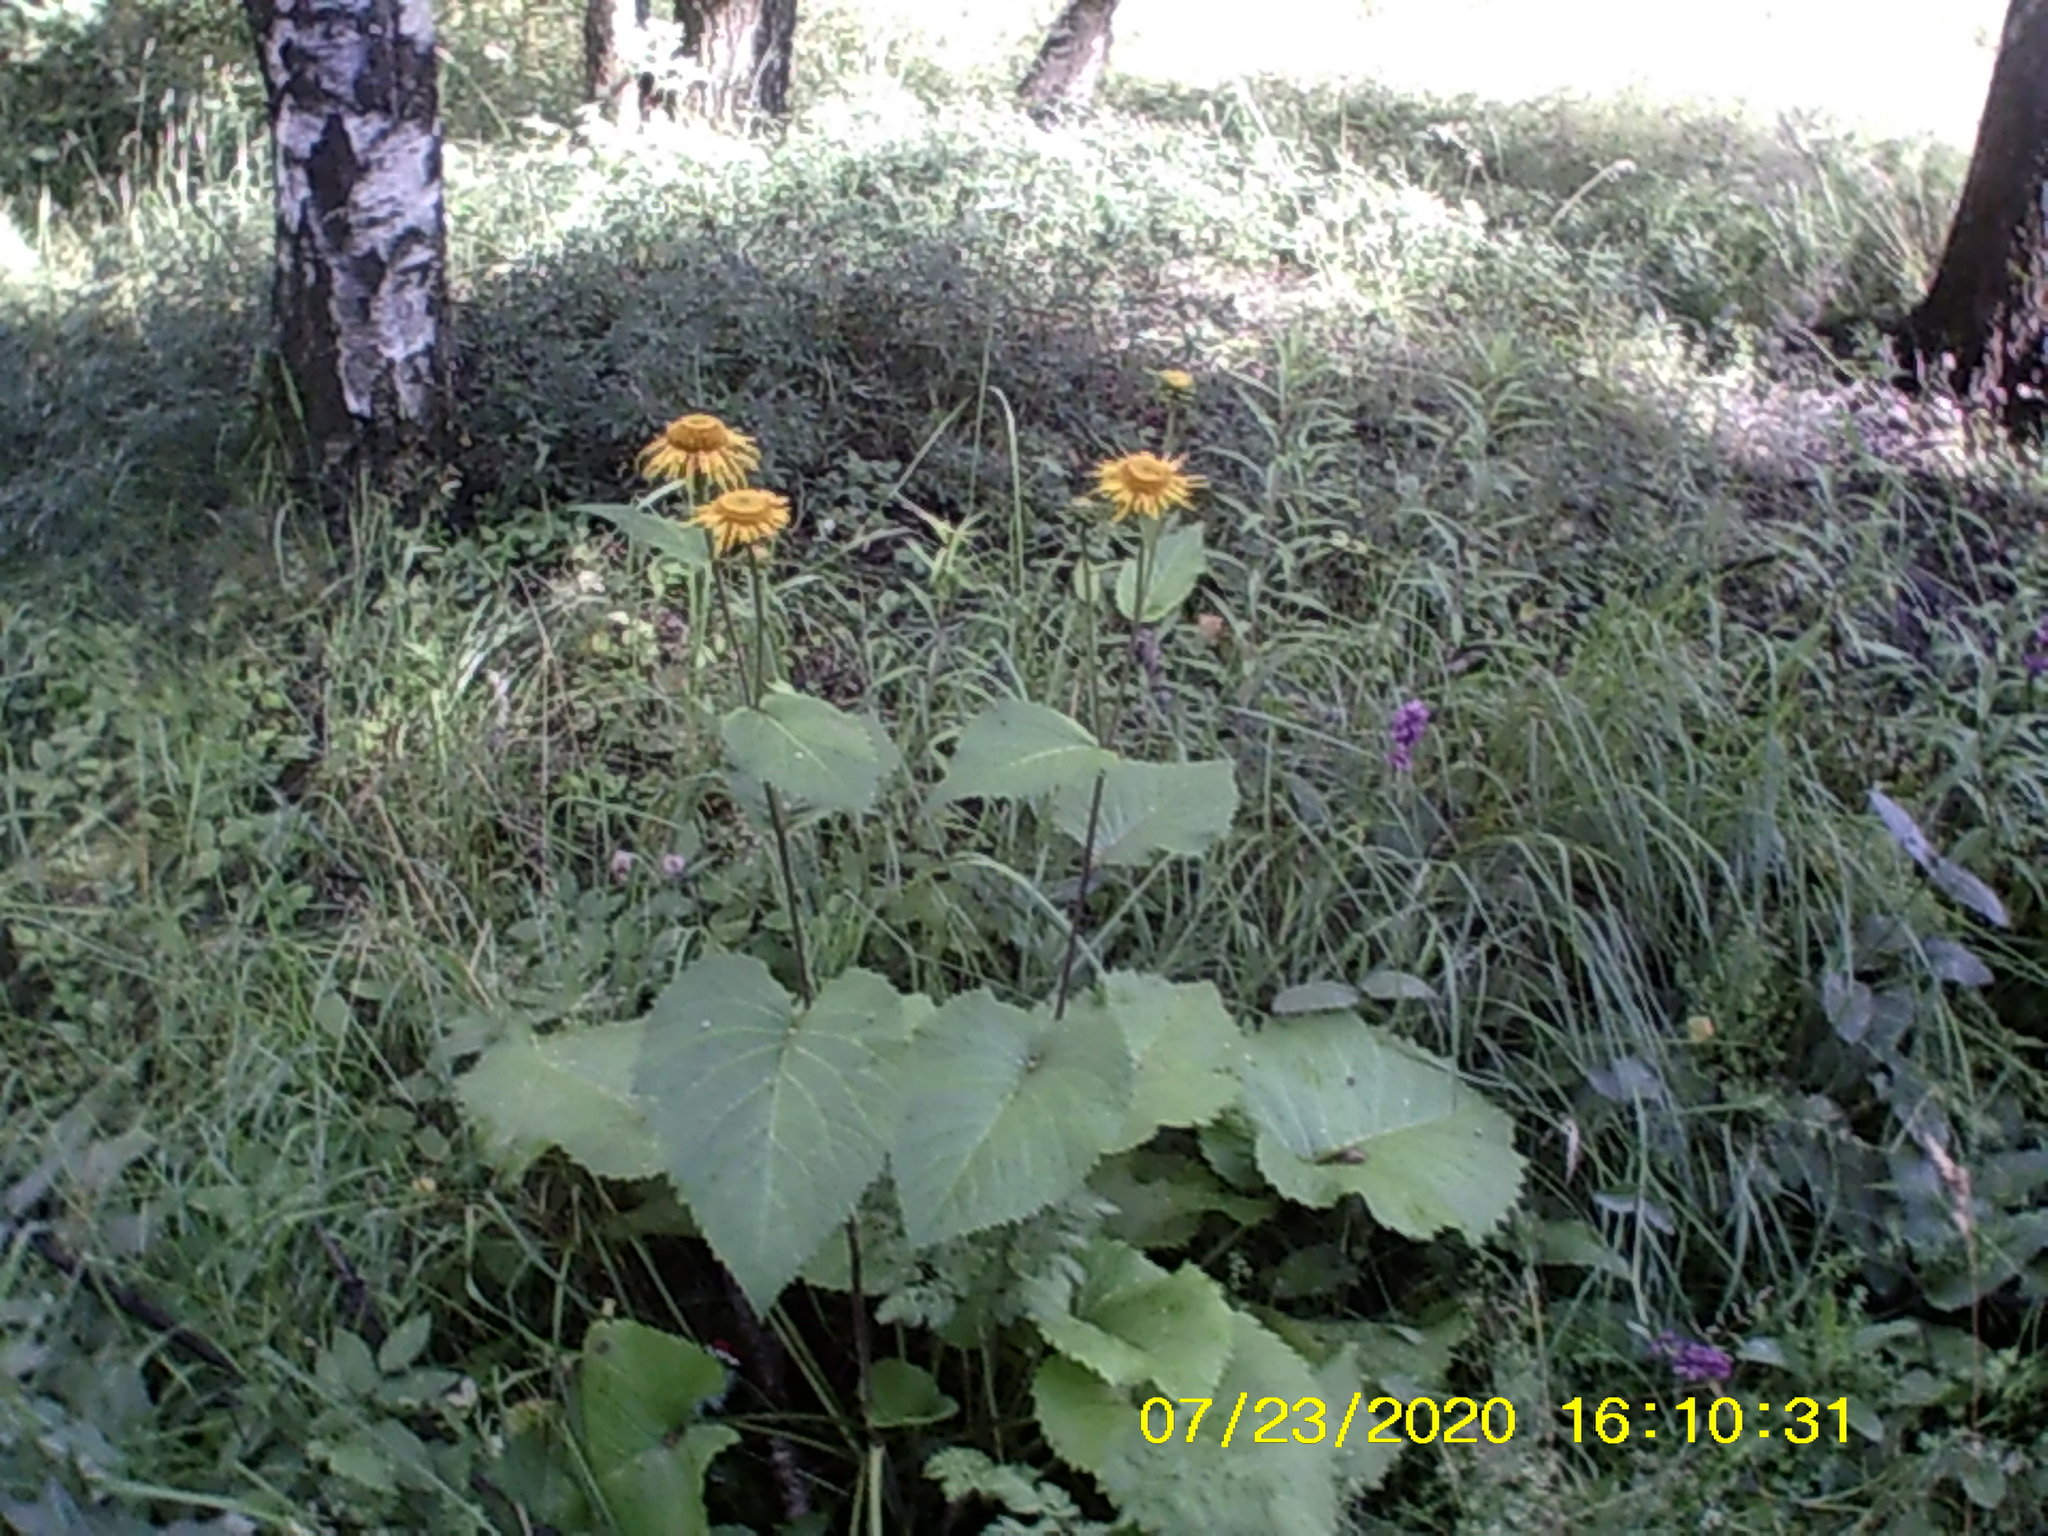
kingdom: Plantae
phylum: Tracheophyta
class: Magnoliopsida
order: Asterales
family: Asteraceae
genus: Telekia
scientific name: Telekia speciosa
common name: Yellow oxeye
